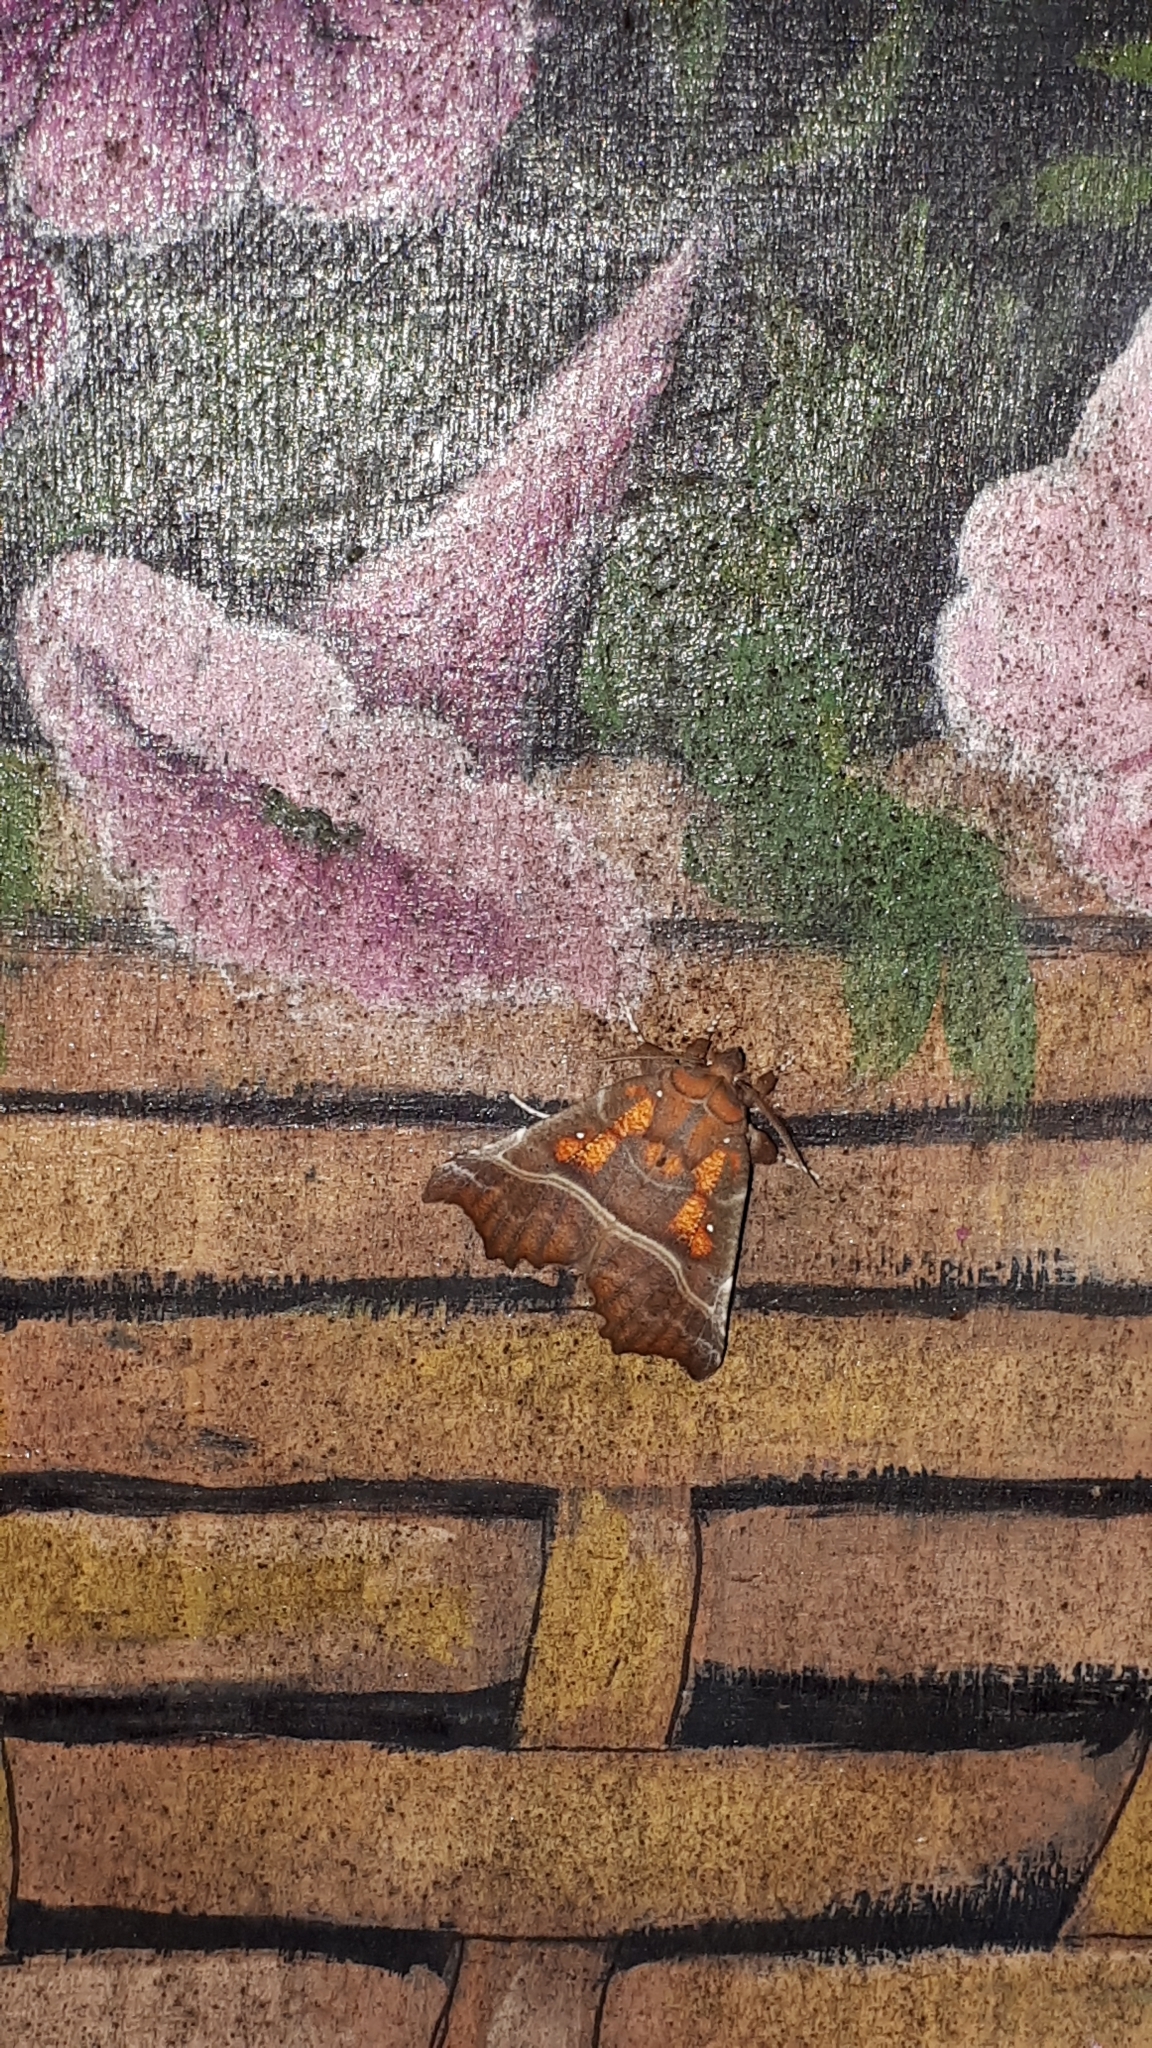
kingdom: Animalia
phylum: Arthropoda
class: Insecta
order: Lepidoptera
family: Erebidae
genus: Scoliopteryx
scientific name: Scoliopteryx libatrix
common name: Herald
